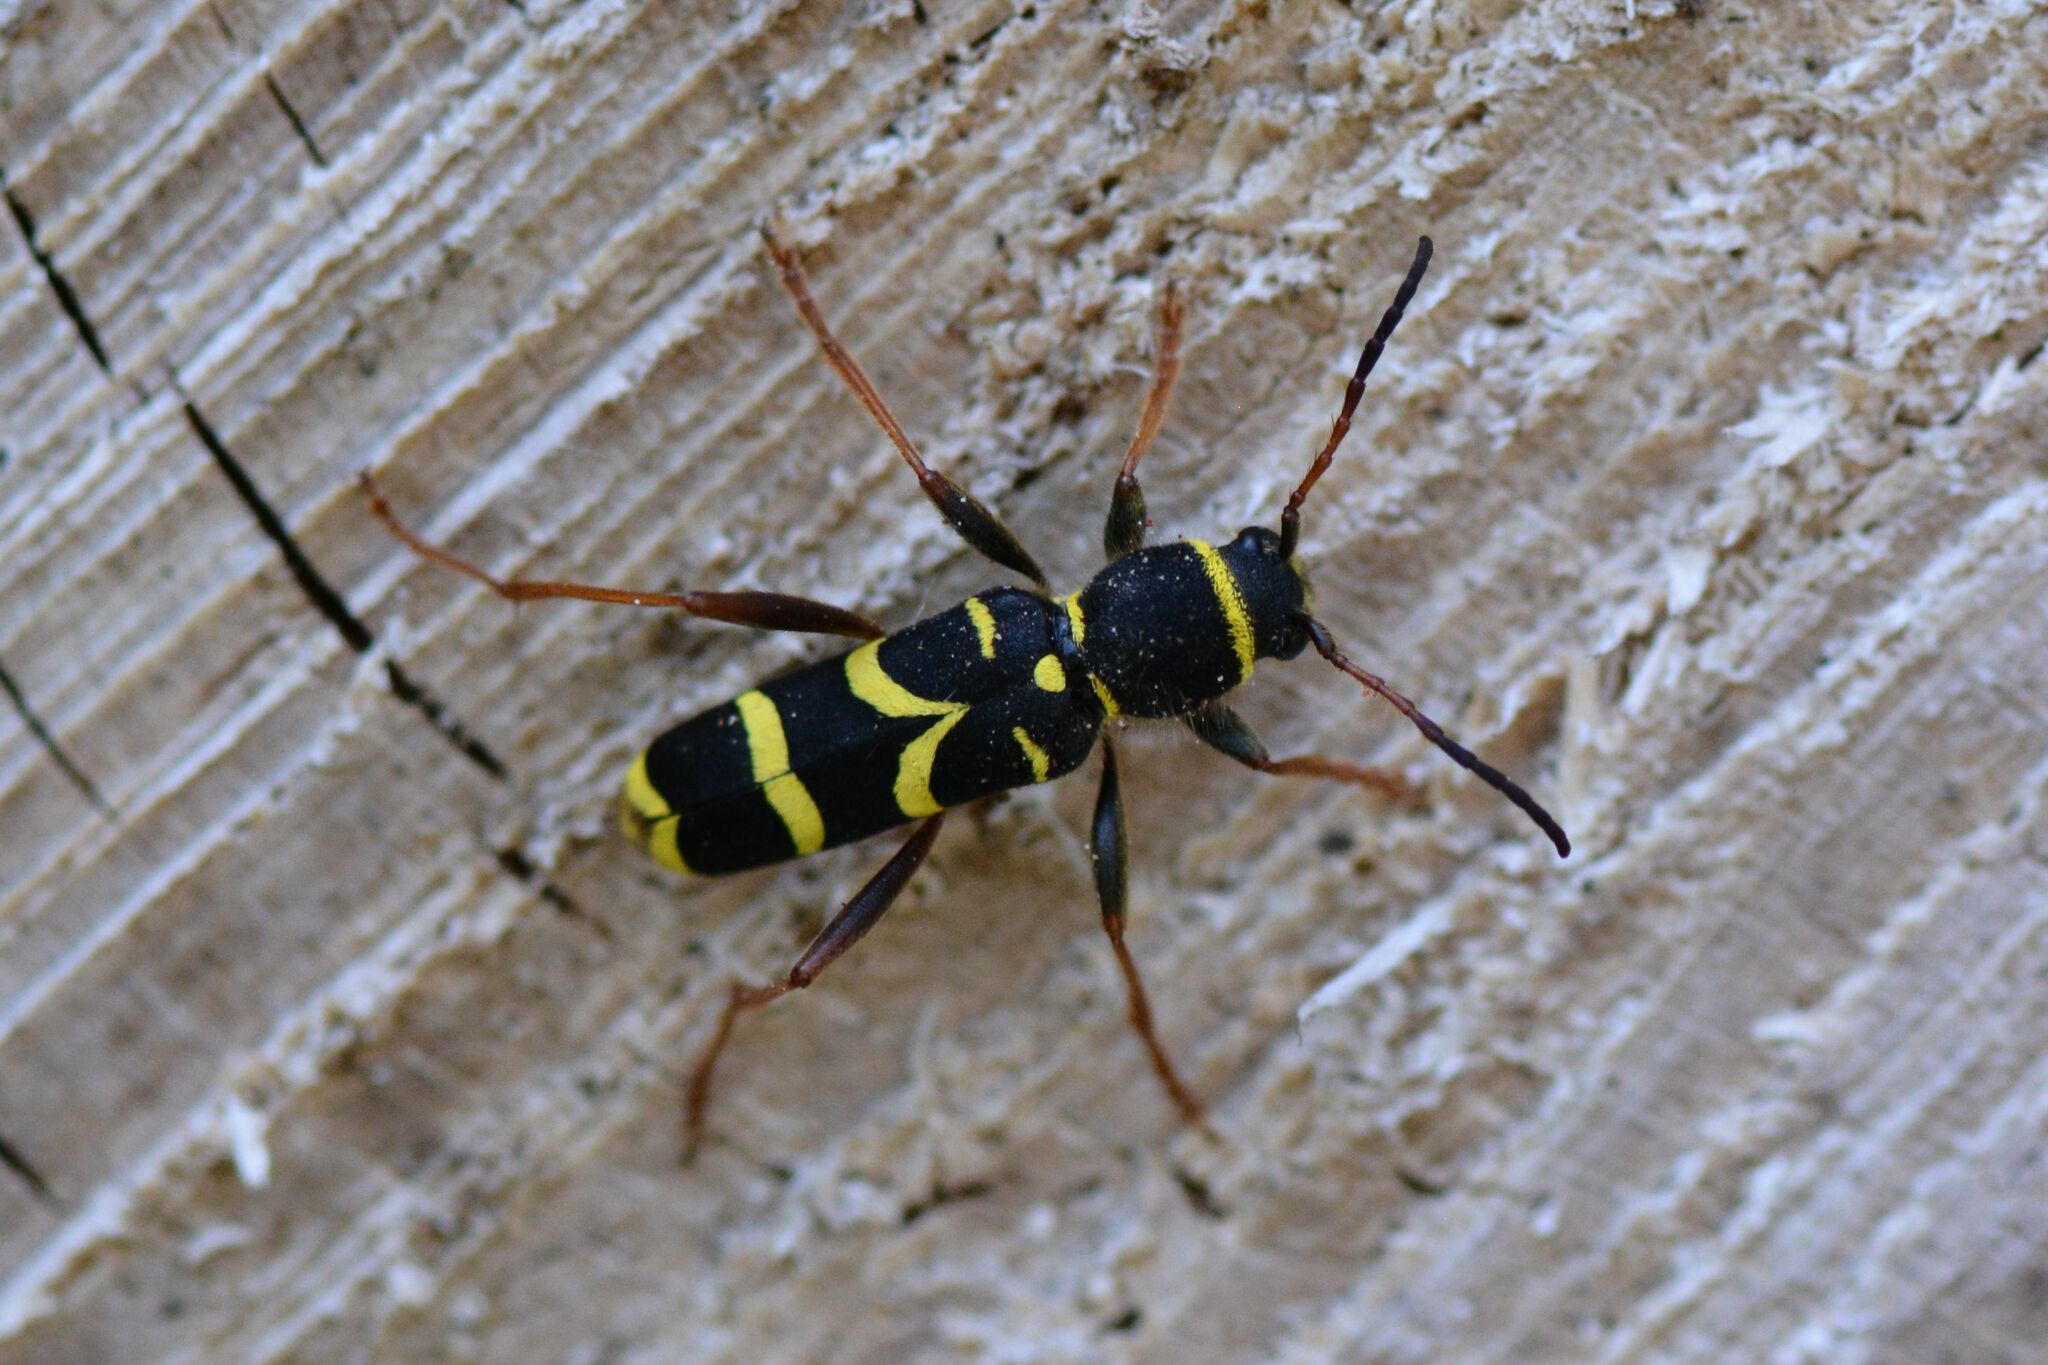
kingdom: Animalia
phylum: Arthropoda
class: Insecta
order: Coleoptera
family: Cerambycidae
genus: Clytus
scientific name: Clytus arietis
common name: Wasp beetle
